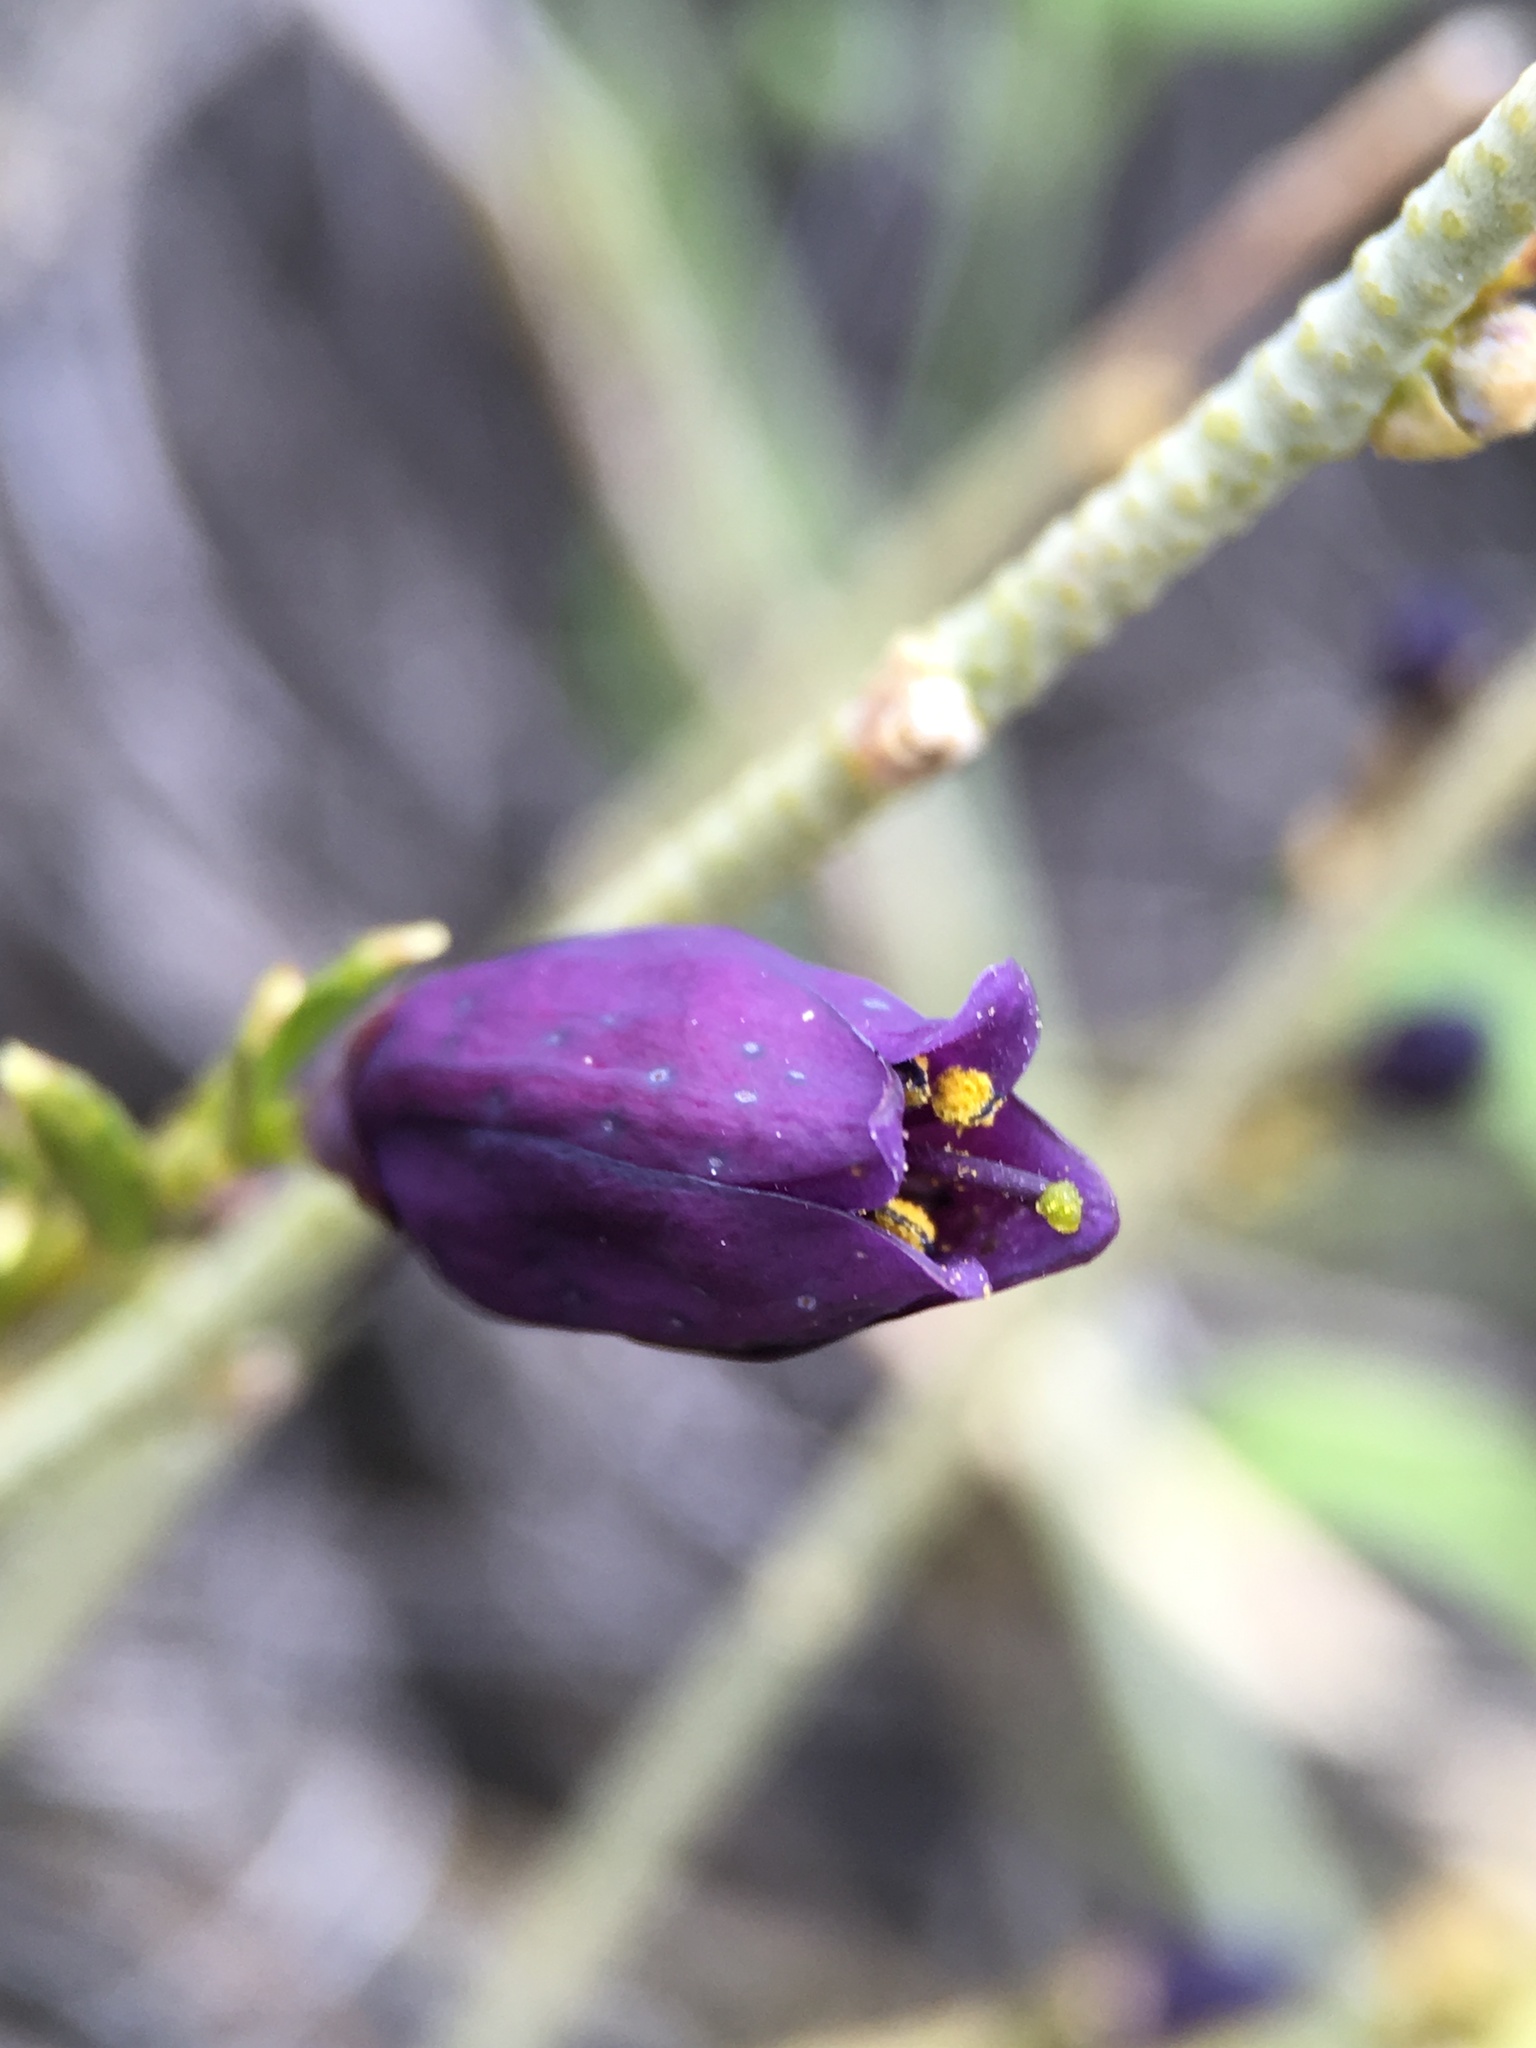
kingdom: Plantae
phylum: Tracheophyta
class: Magnoliopsida
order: Sapindales
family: Rutaceae
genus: Thamnosma
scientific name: Thamnosma montana
